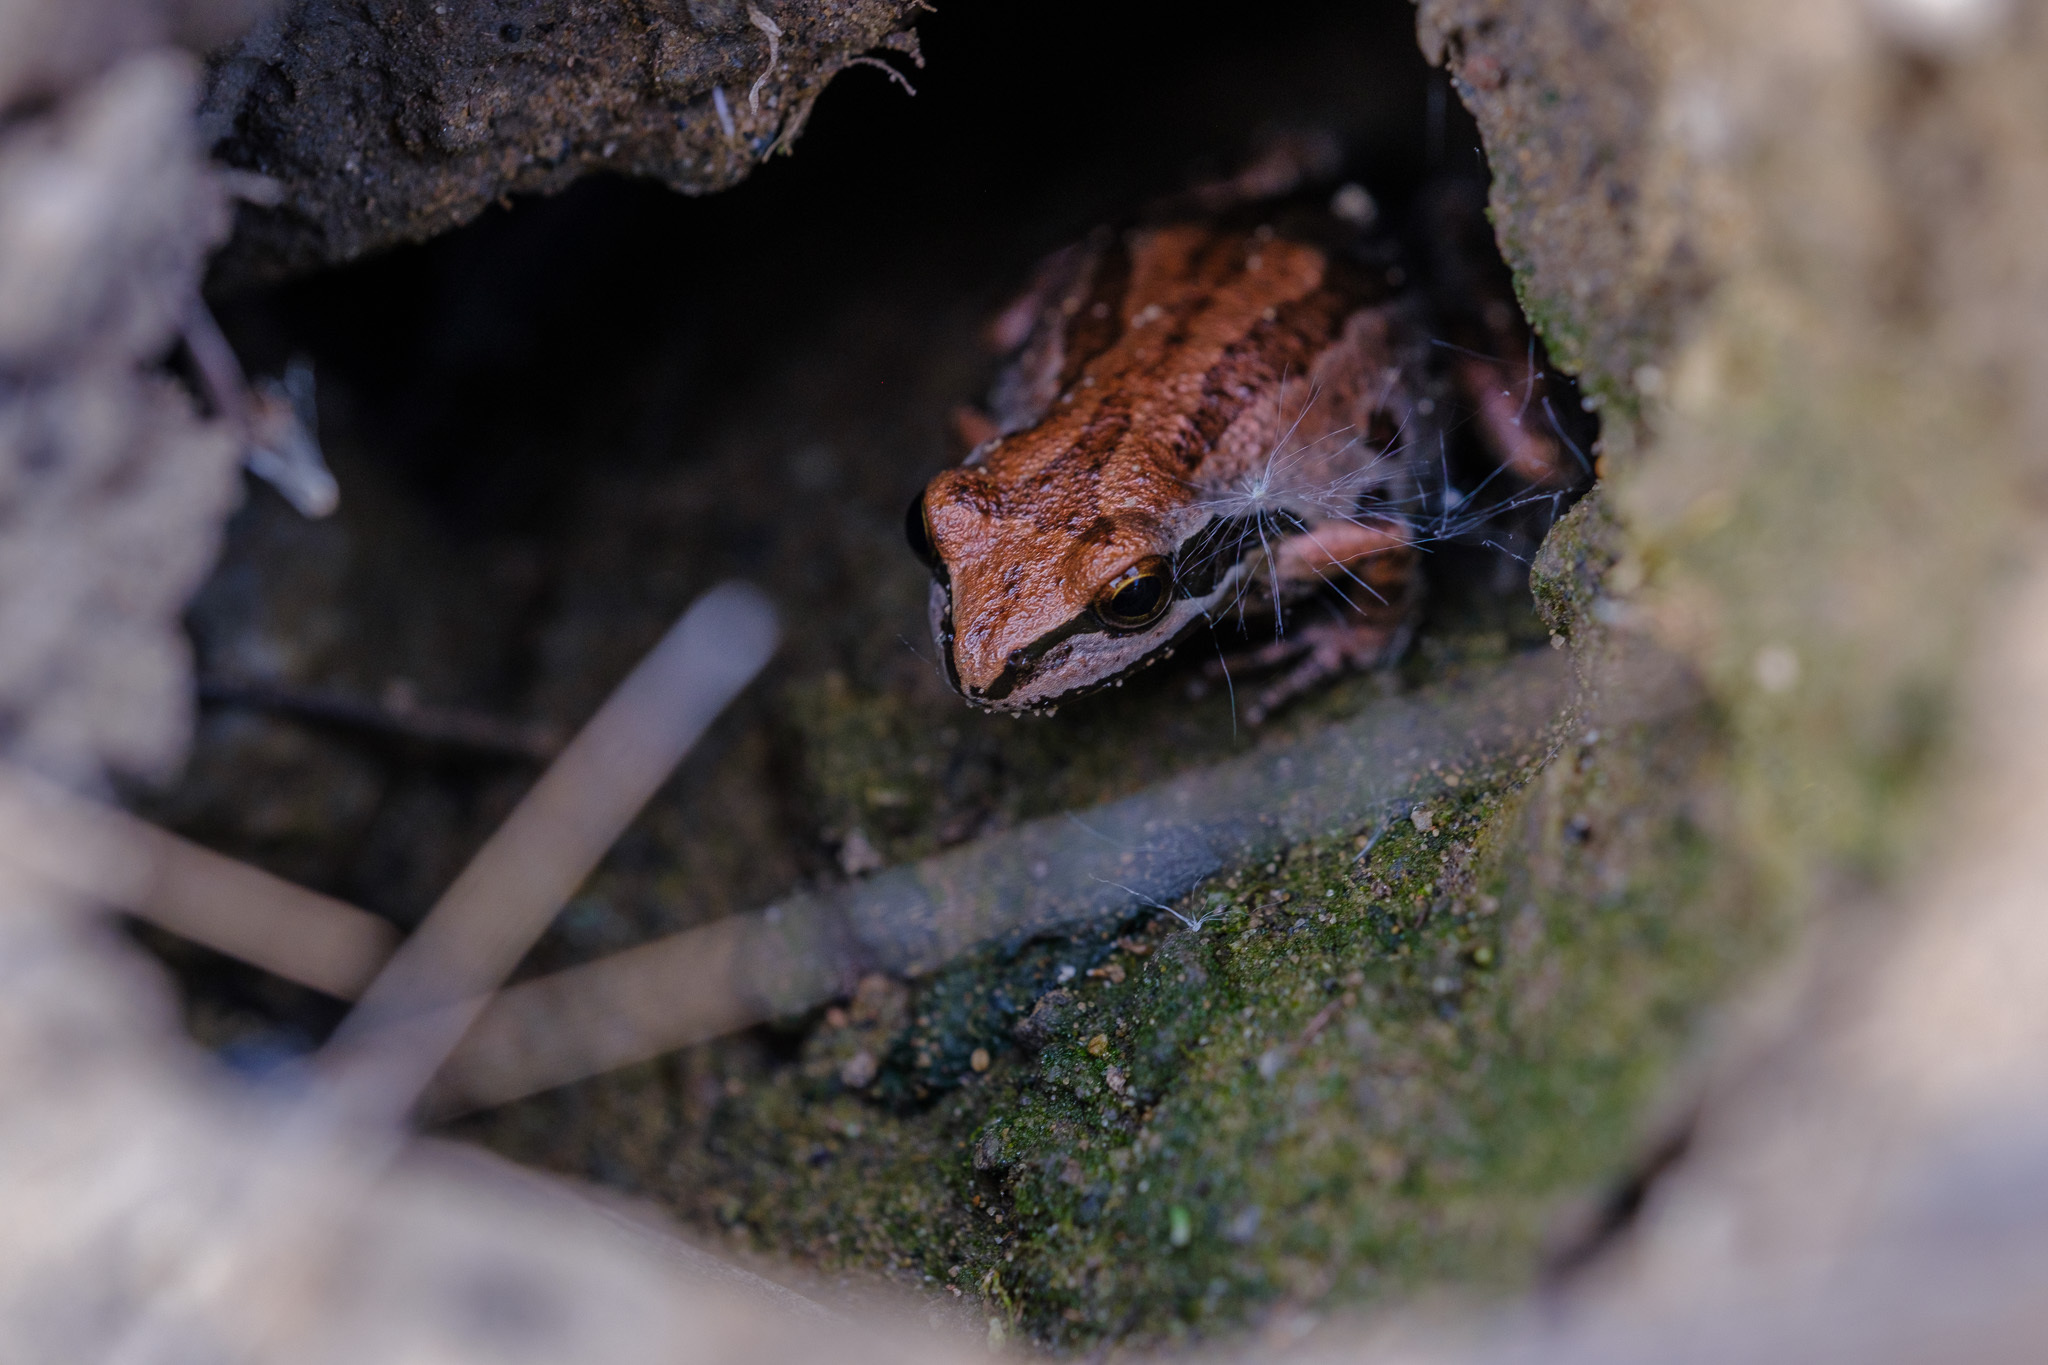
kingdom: Animalia
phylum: Chordata
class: Amphibia
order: Anura
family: Hylidae
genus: Pseudacris
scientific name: Pseudacris regilla
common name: Pacific chorus frog
